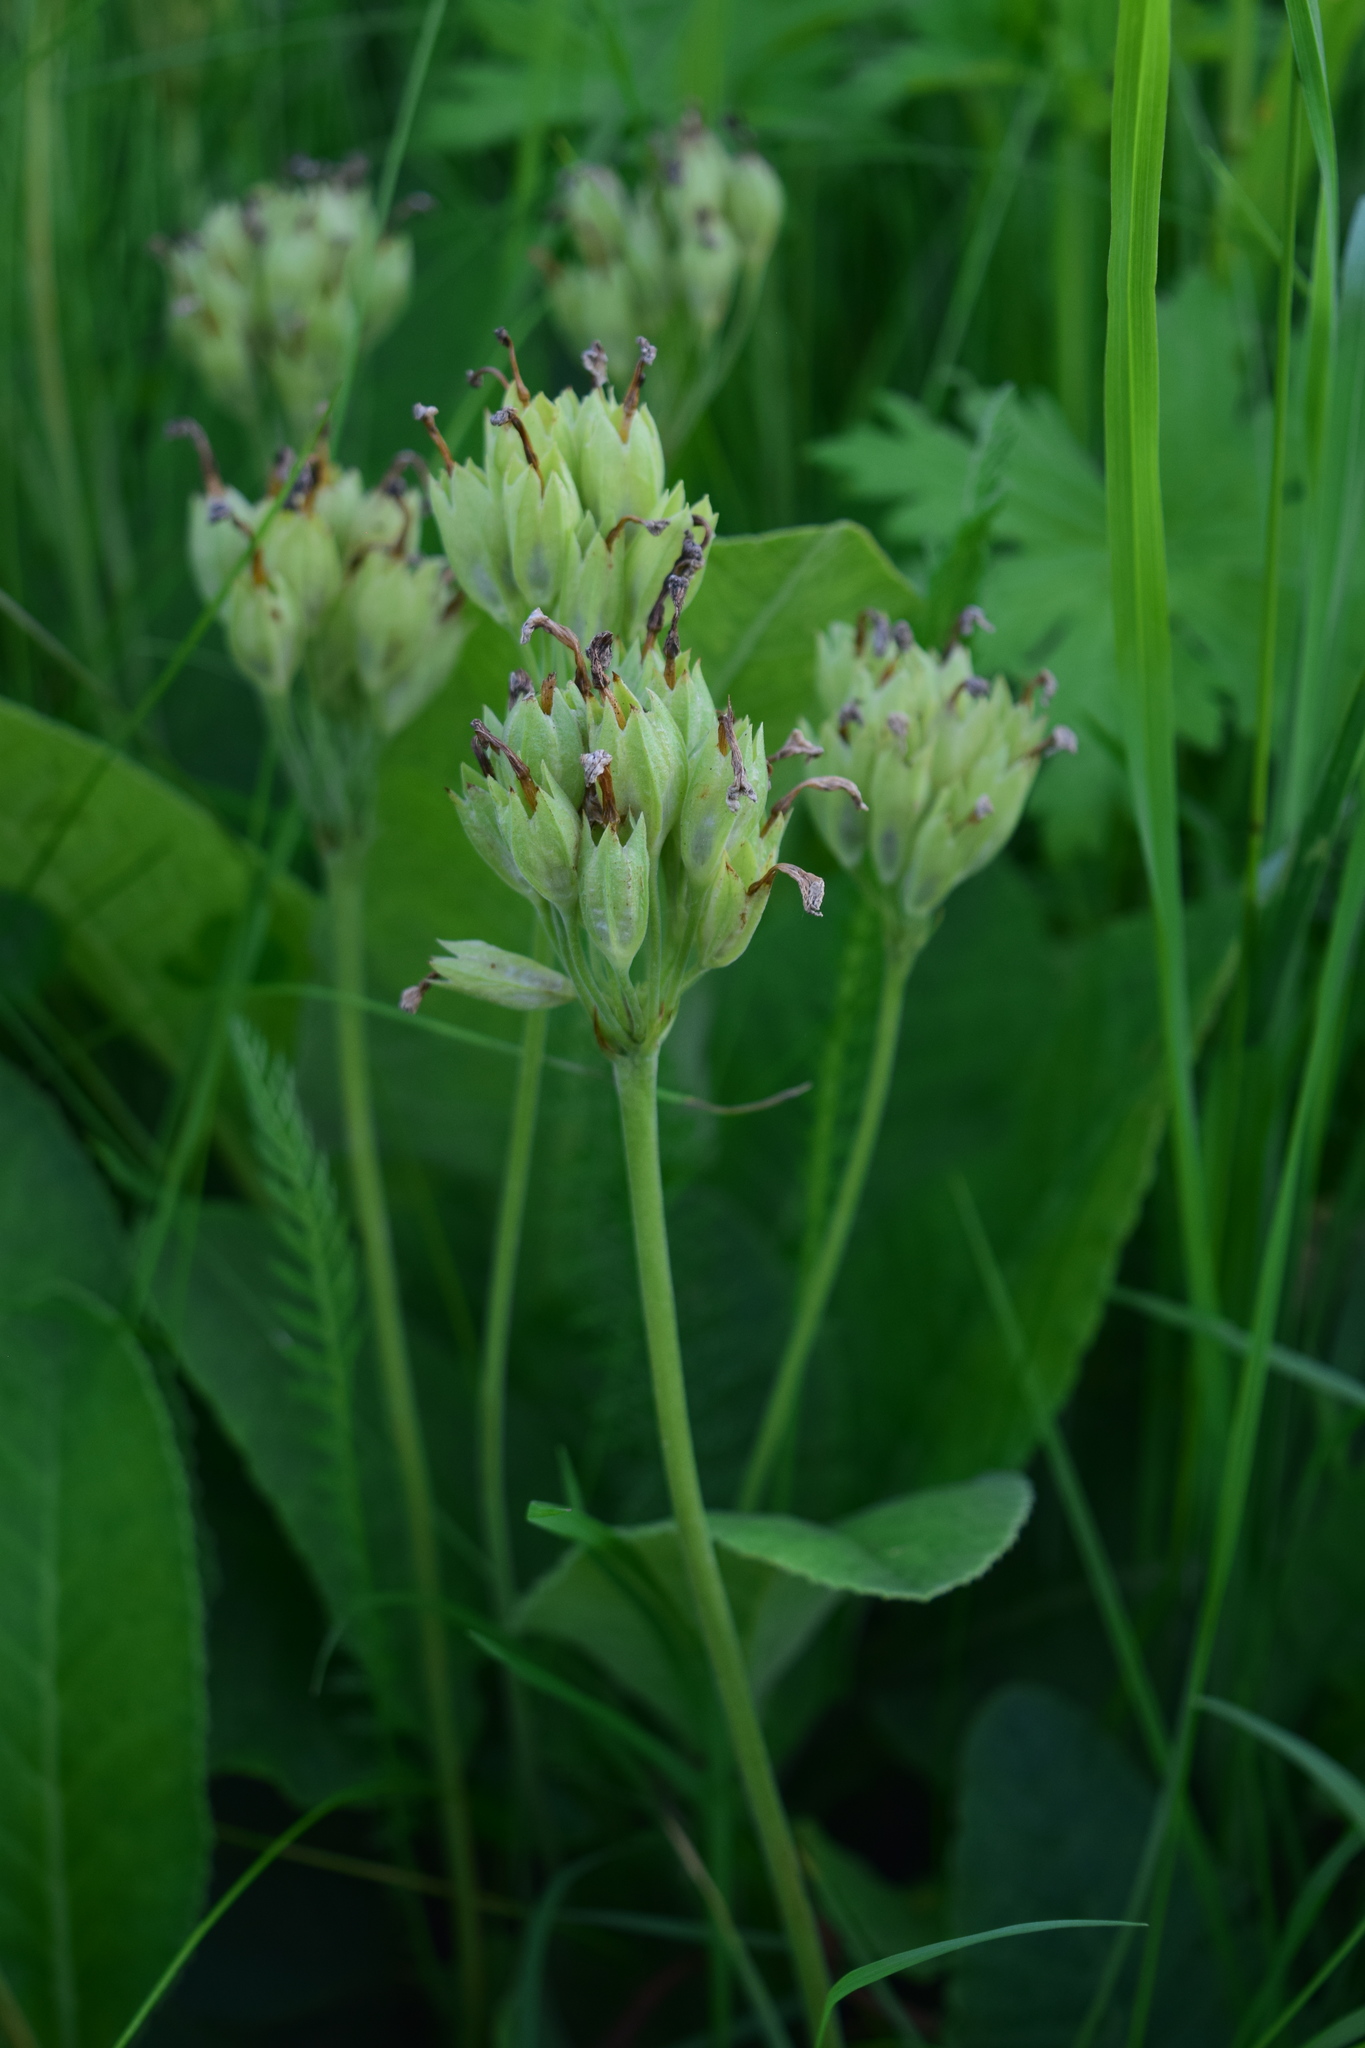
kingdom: Plantae
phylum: Tracheophyta
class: Magnoliopsida
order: Ericales
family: Primulaceae
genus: Primula
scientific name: Primula veris
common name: Cowslip
